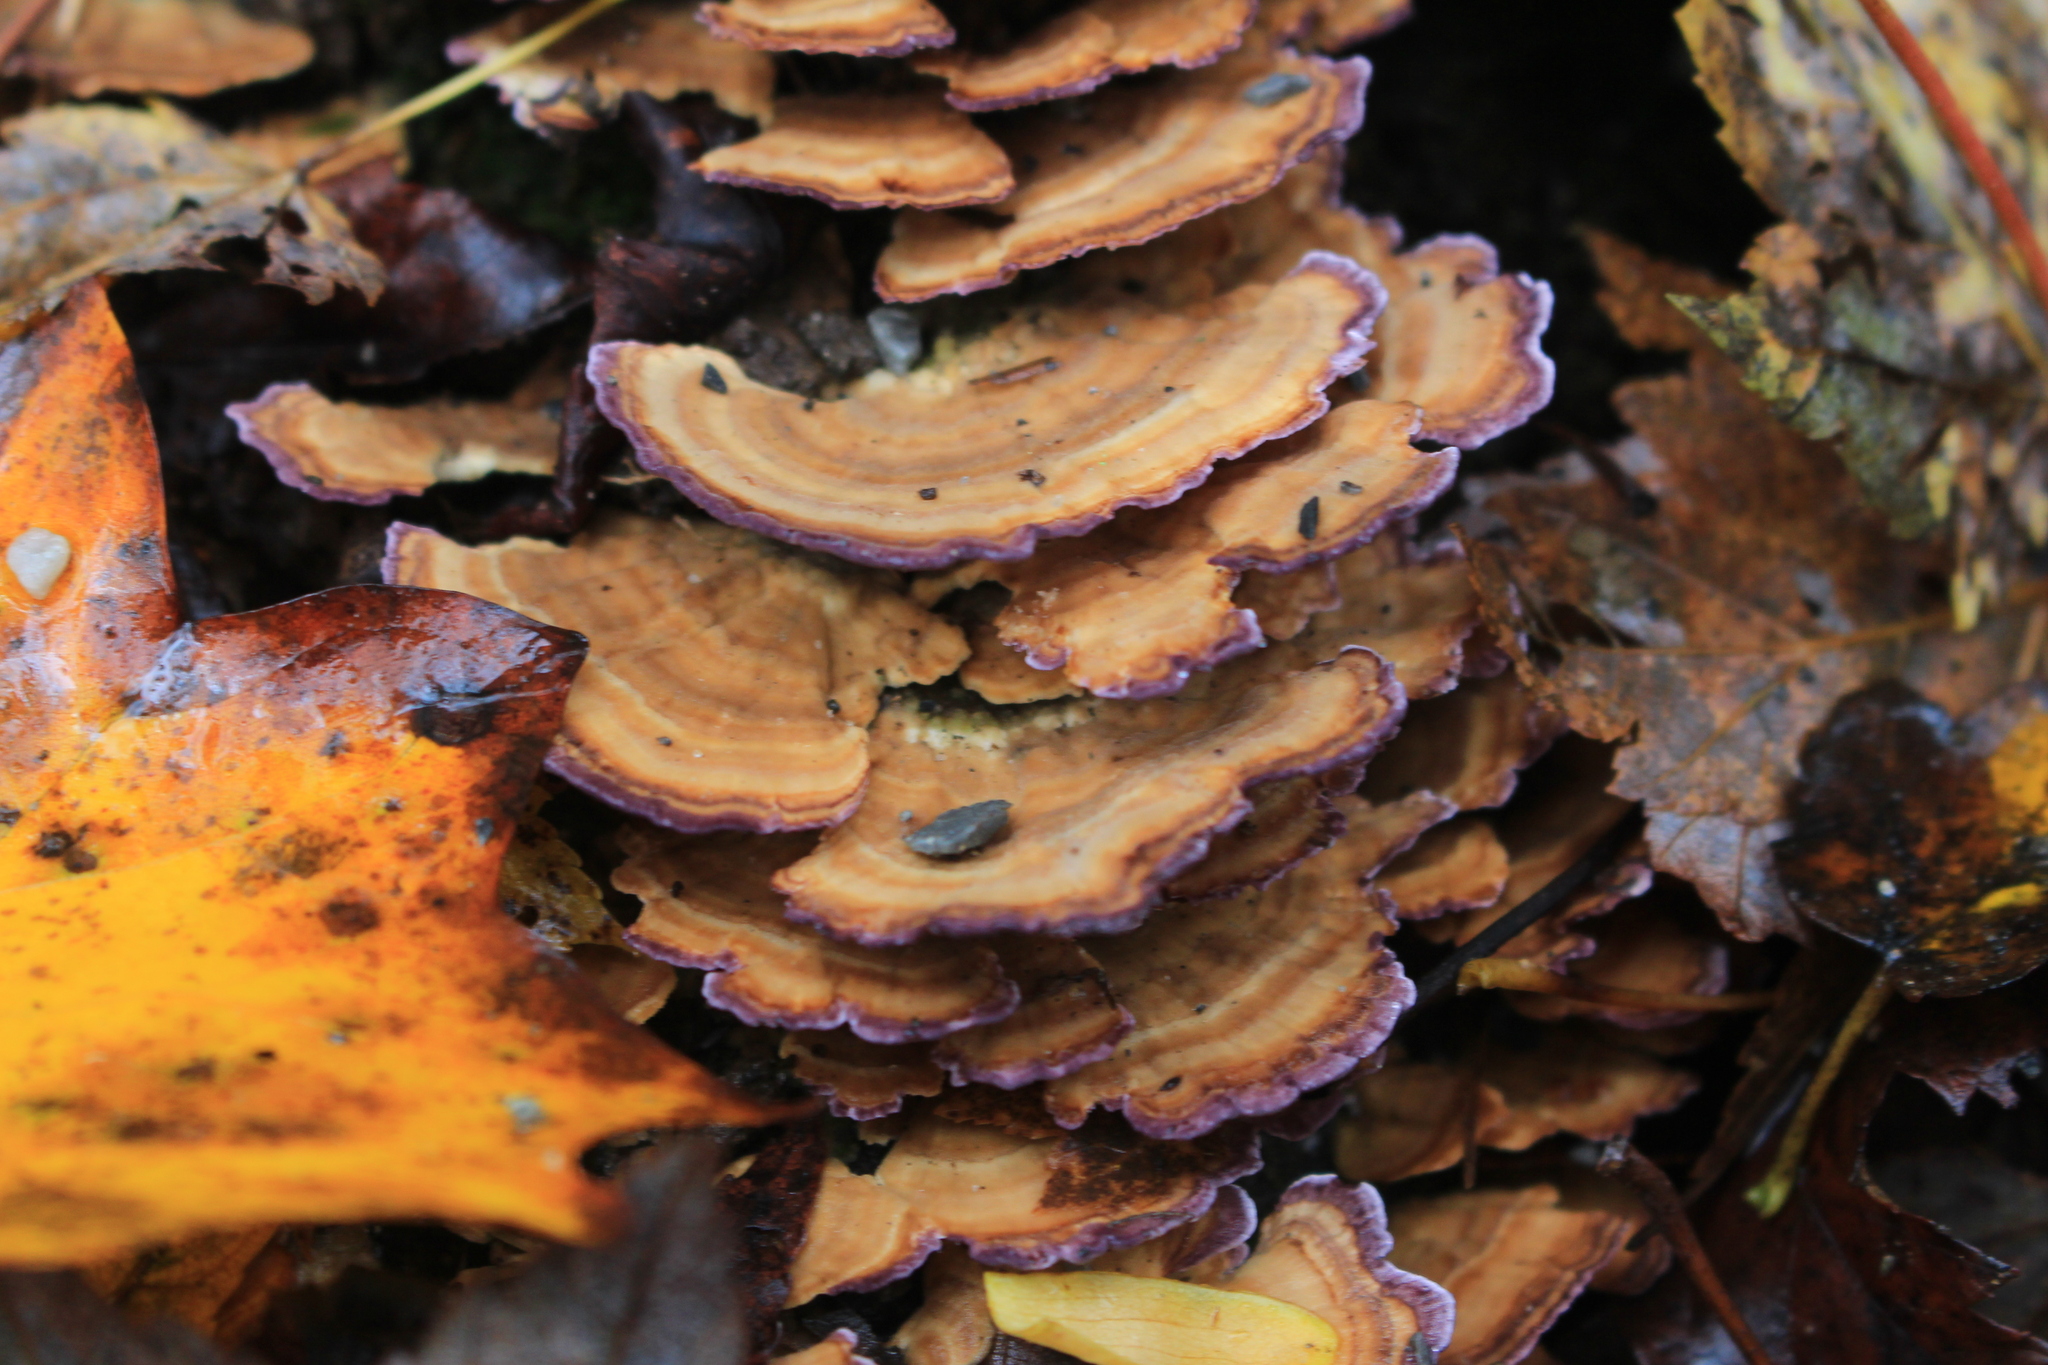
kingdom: Fungi
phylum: Basidiomycota
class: Agaricomycetes
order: Hymenochaetales
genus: Trichaptum
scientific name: Trichaptum biforme
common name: Violet-toothed polypore
